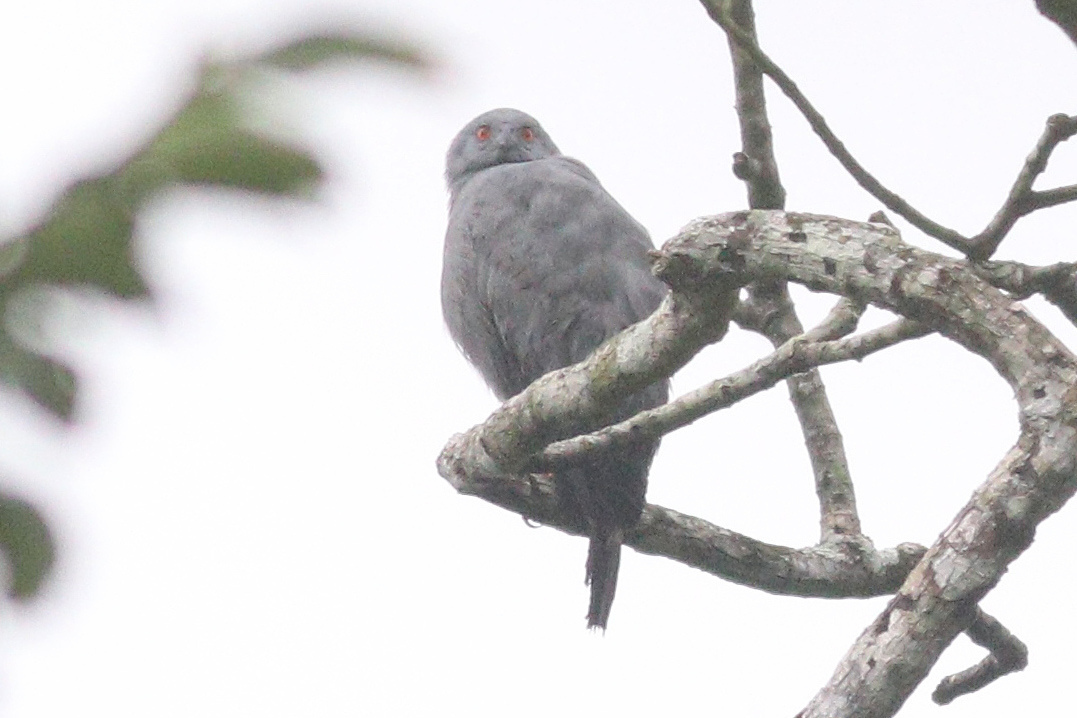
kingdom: Animalia
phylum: Chordata
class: Aves
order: Accipitriformes
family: Accipitridae
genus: Geranospiza
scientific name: Geranospiza caerulescens
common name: Crane hawk
